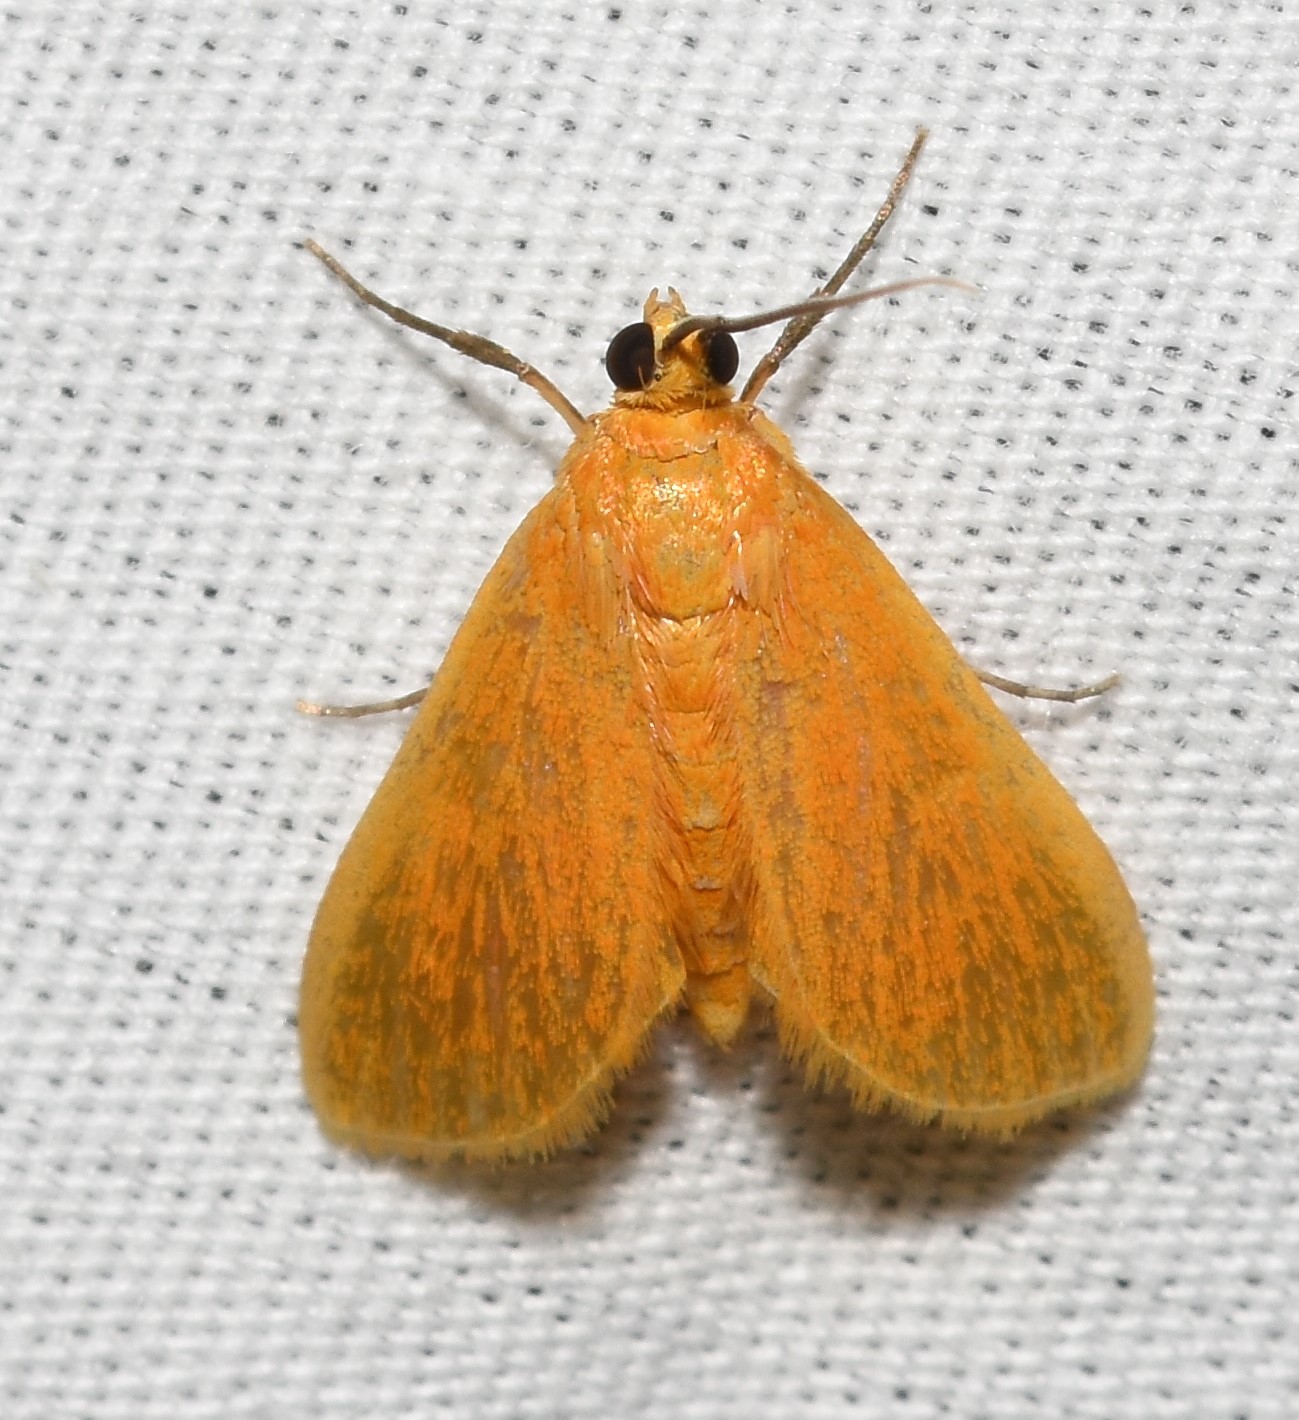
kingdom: Animalia
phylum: Arthropoda
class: Insecta
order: Lepidoptera
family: Crambidae
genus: Helvibotys
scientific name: Helvibotys pucilla
